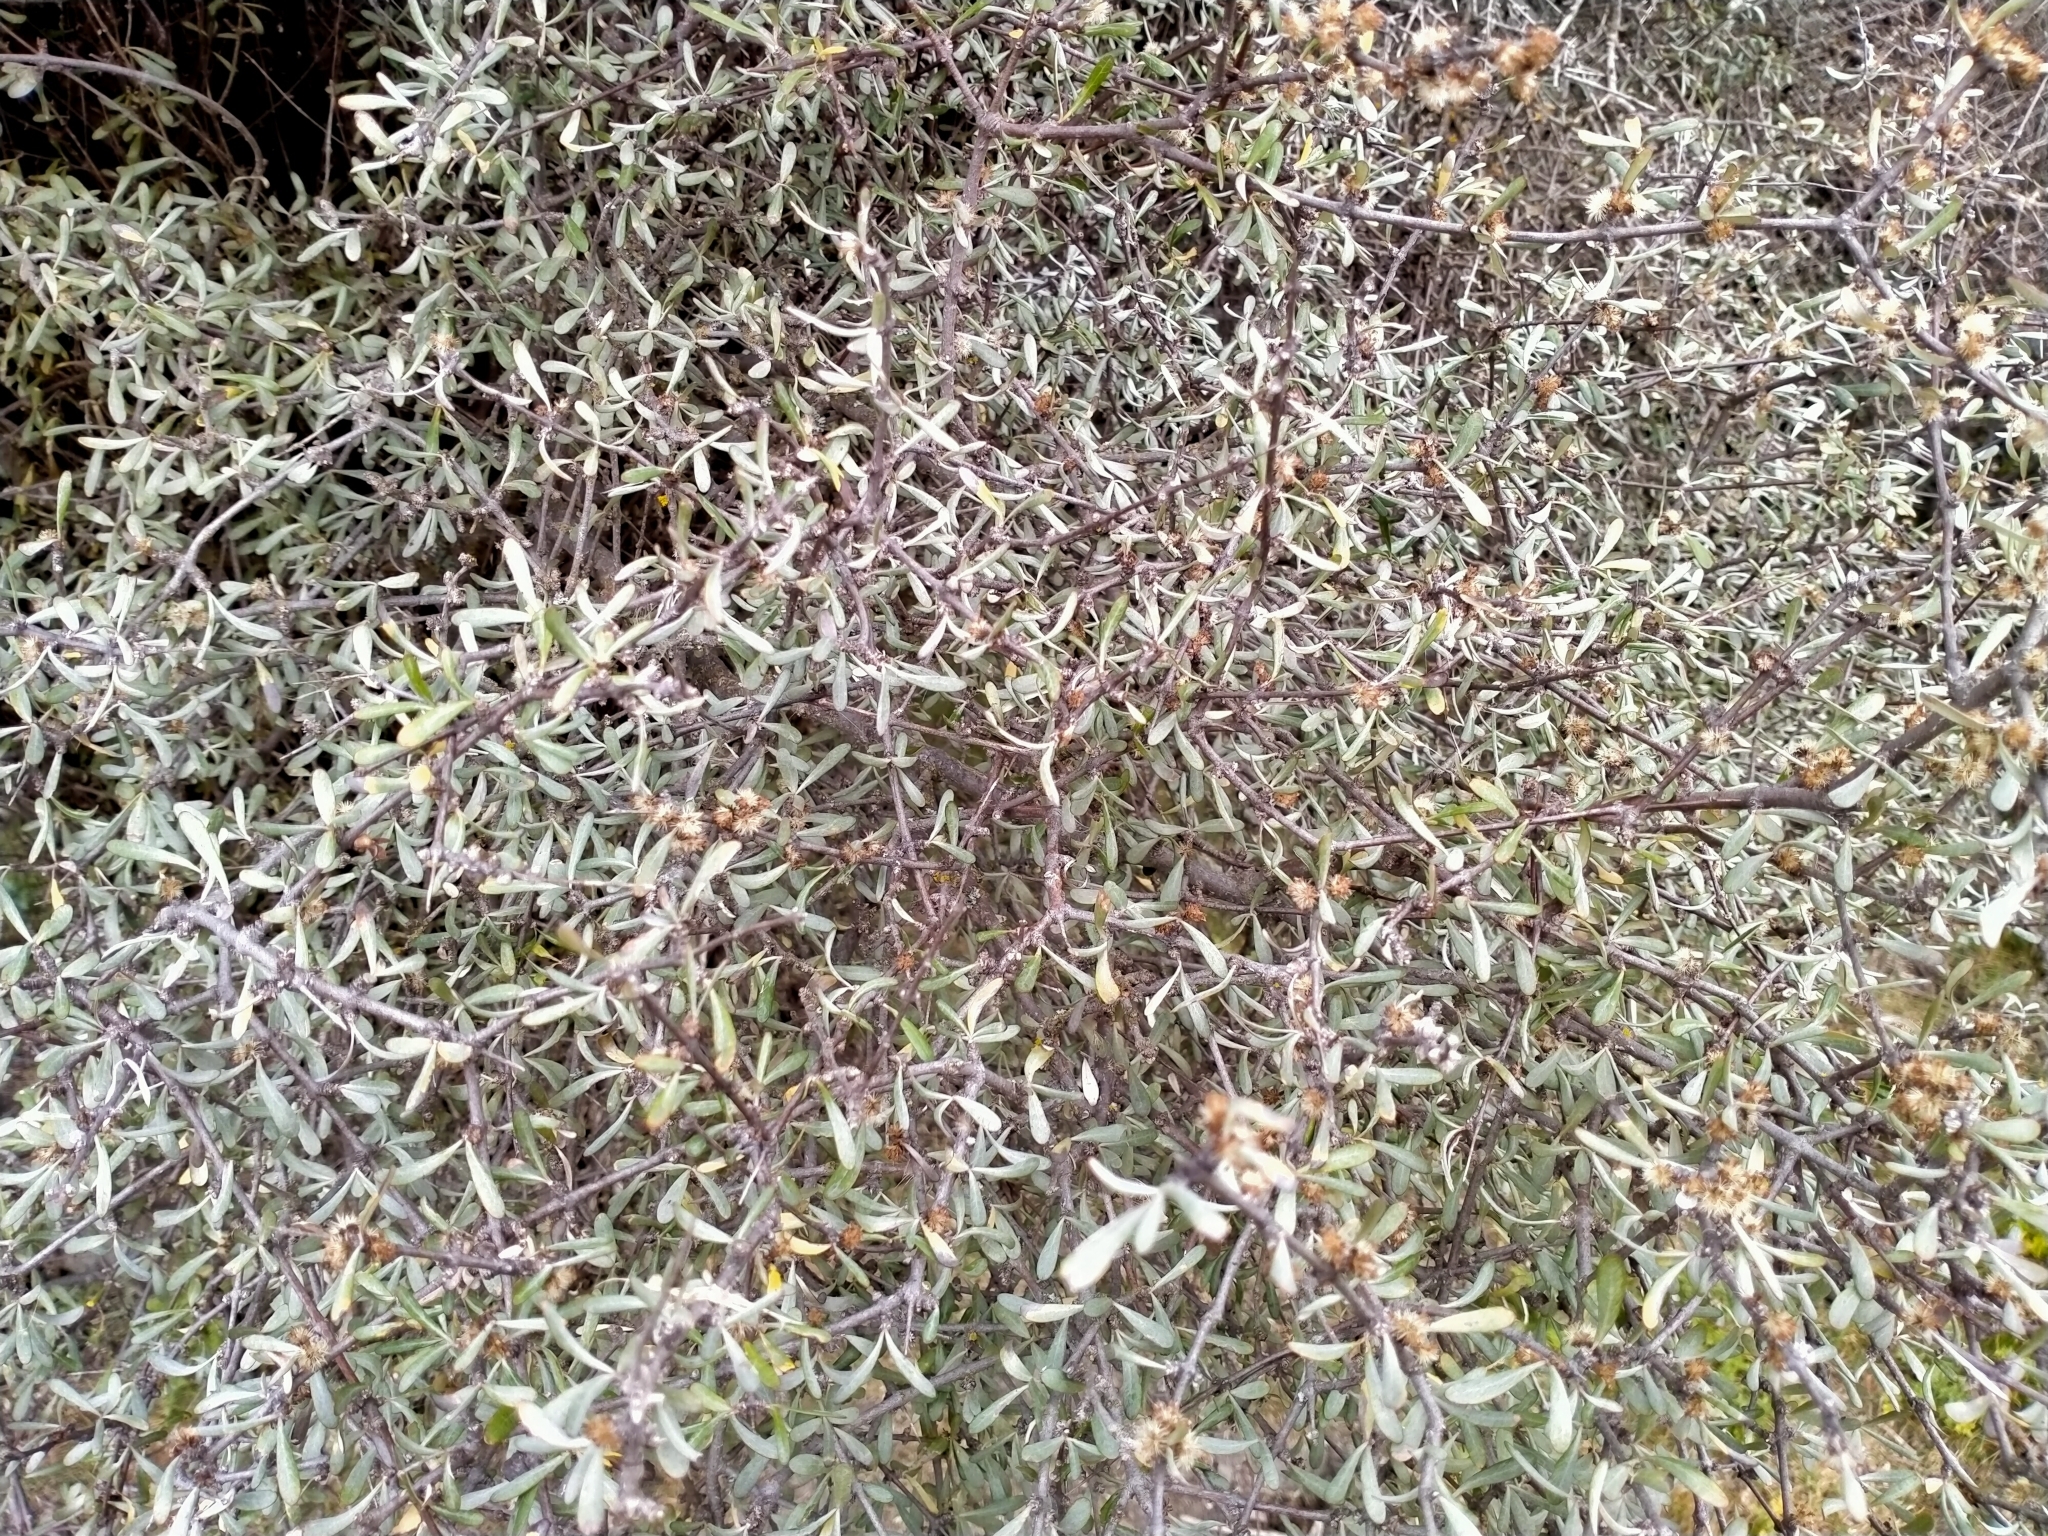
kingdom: Plantae
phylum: Tracheophyta
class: Magnoliopsida
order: Asterales
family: Asteraceae
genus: Olearia
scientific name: Olearia odorata
